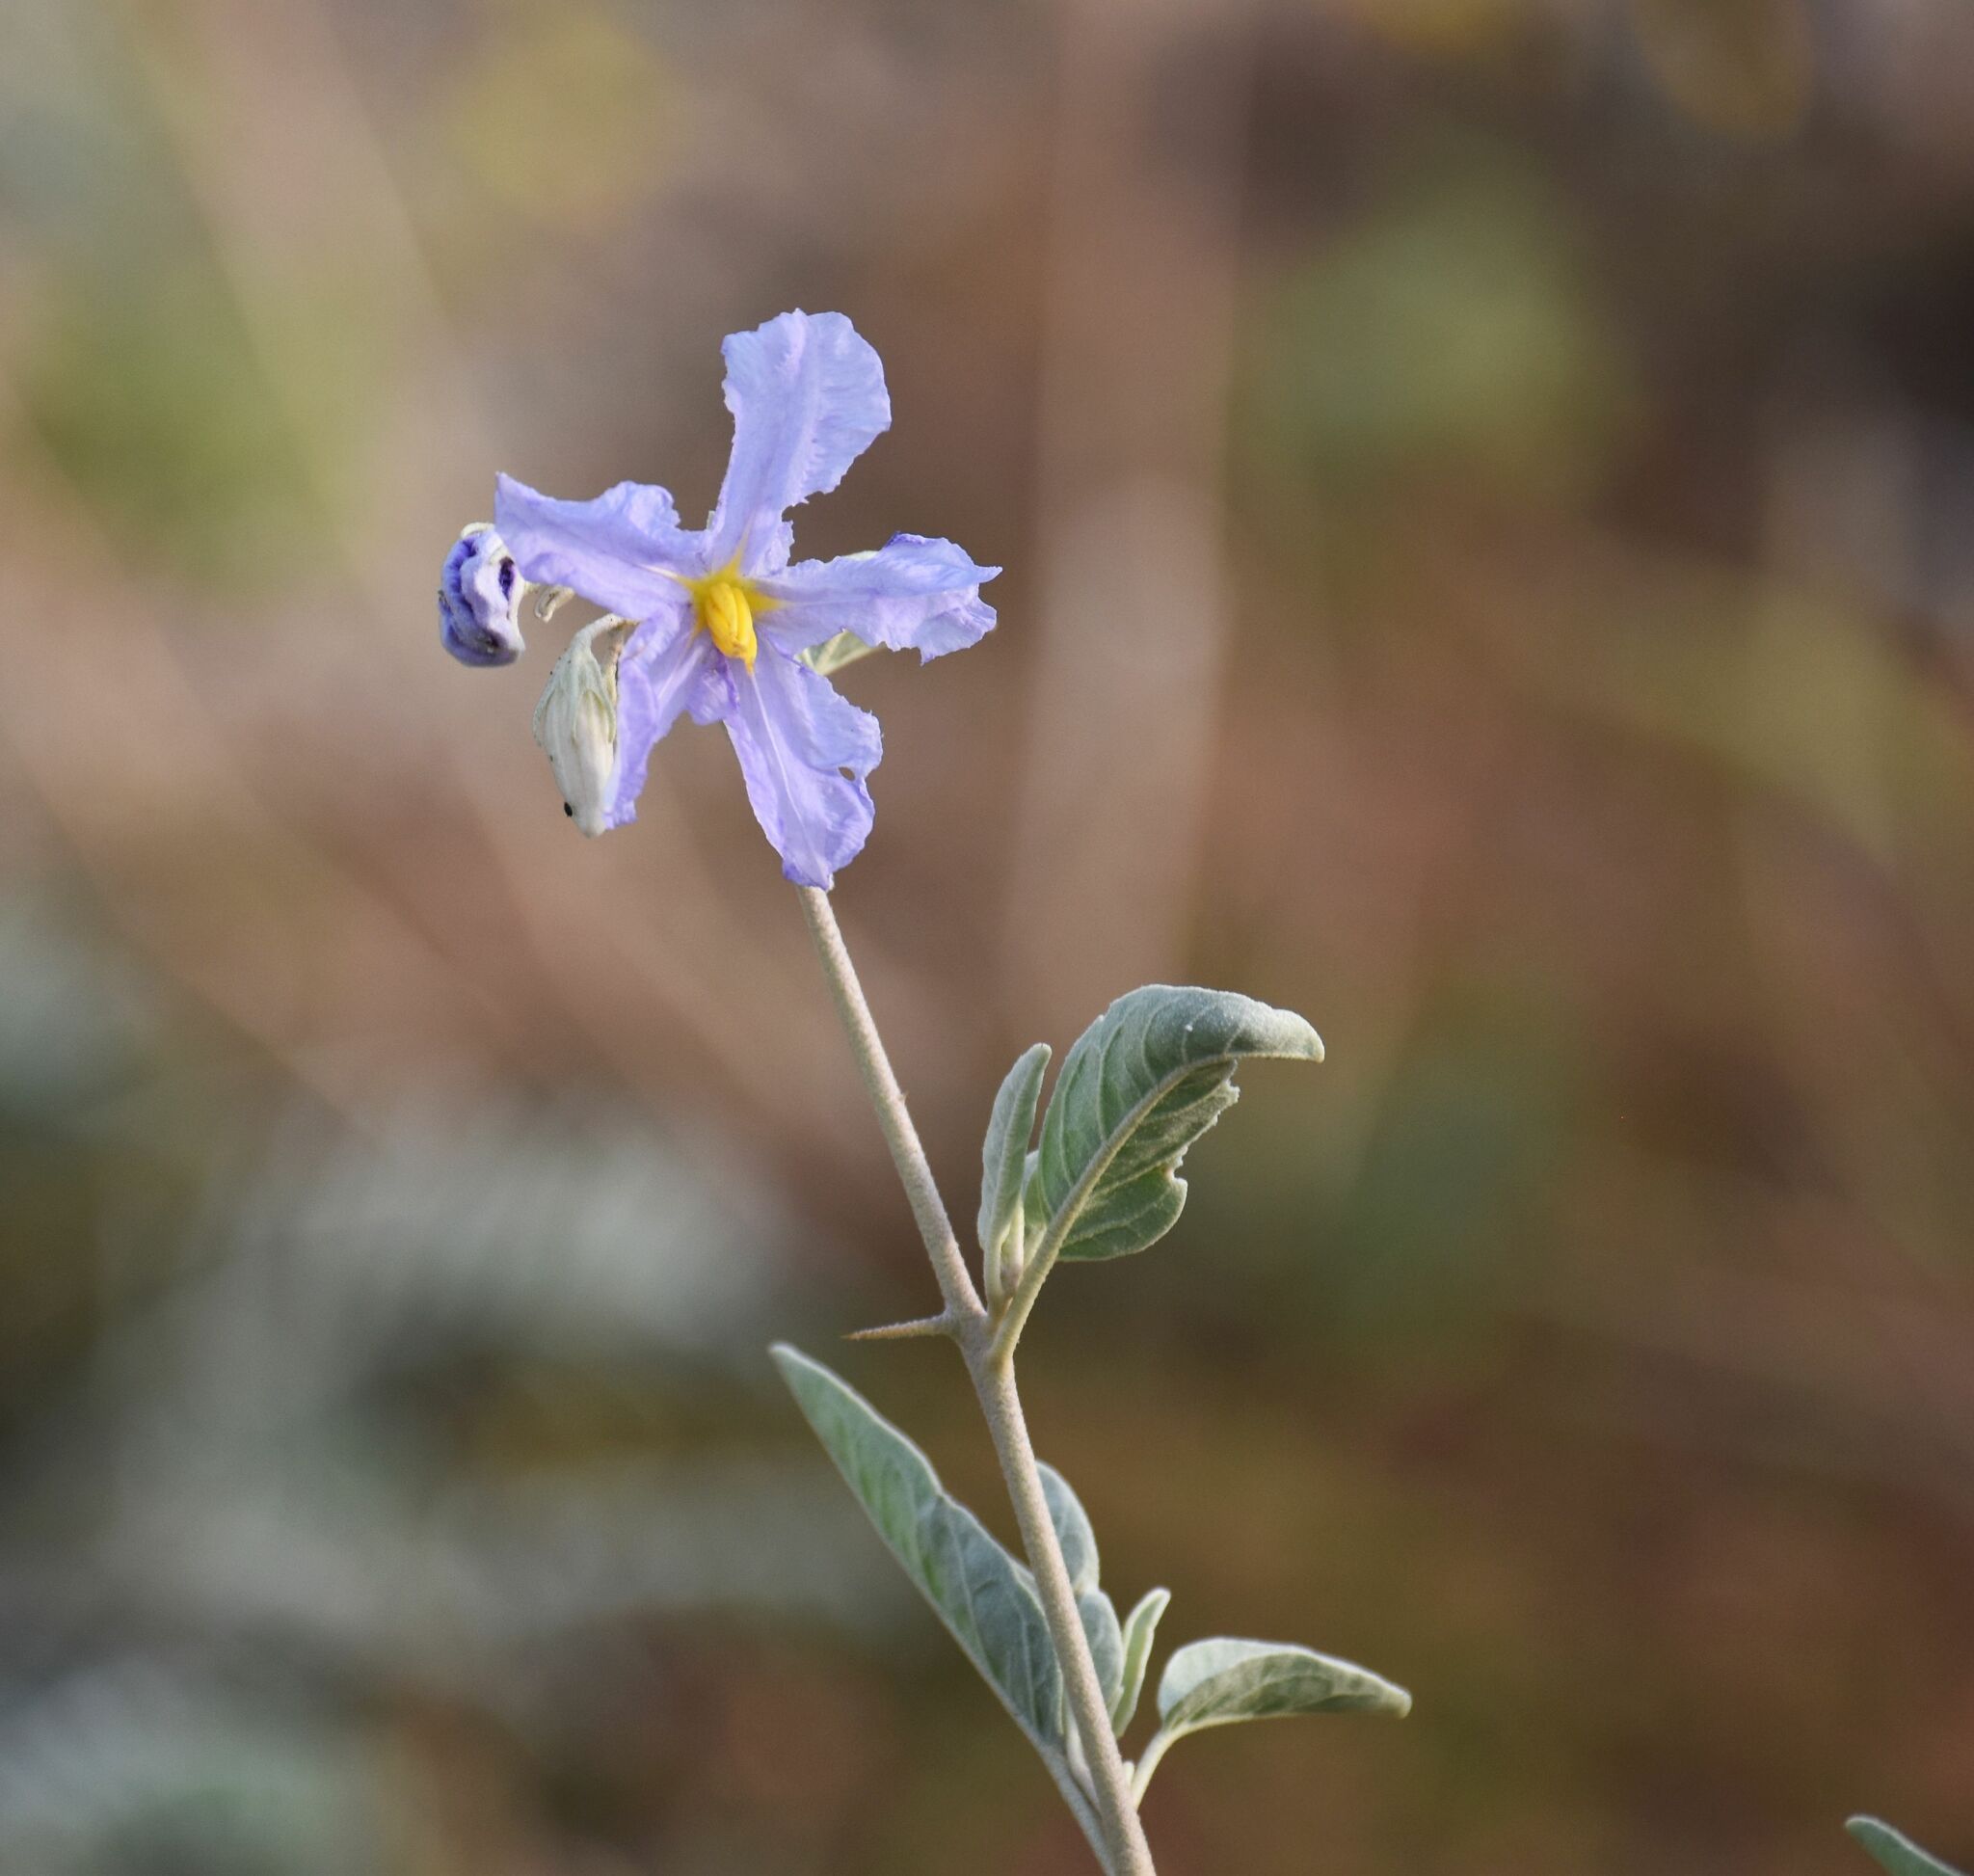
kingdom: Plantae
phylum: Tracheophyta
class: Magnoliopsida
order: Solanales
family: Solanaceae
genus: Solanum
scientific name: Solanum hindsianum
